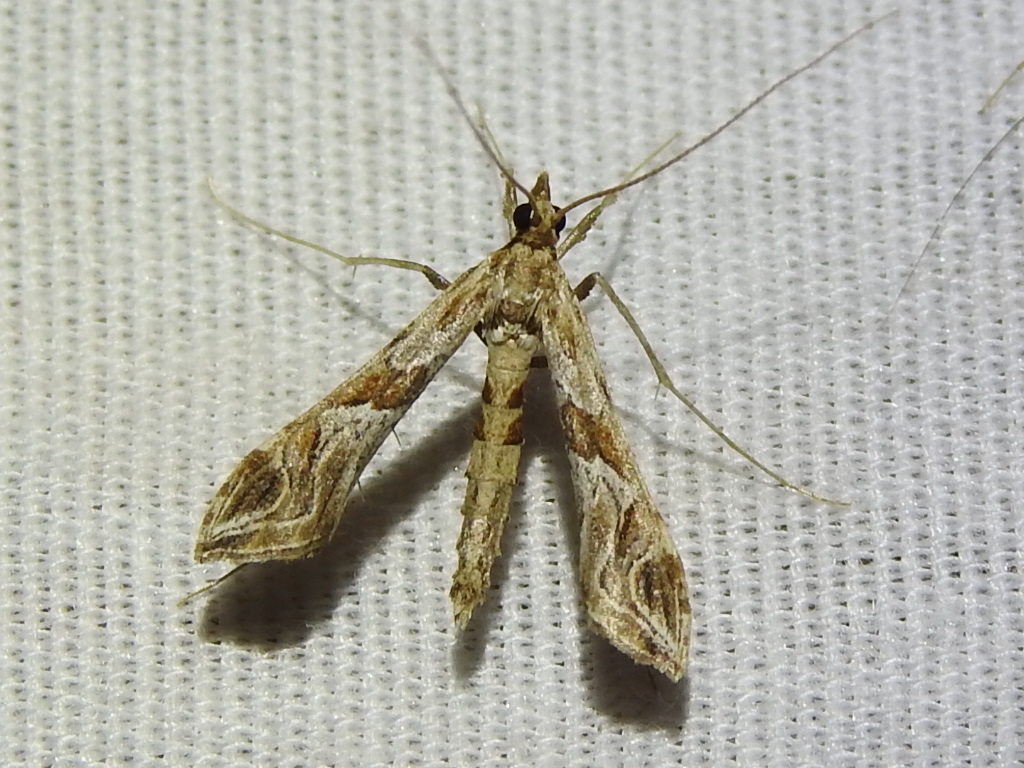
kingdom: Animalia
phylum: Arthropoda
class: Insecta
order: Lepidoptera
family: Crambidae
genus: Lineodes
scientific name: Lineodes interrupta
